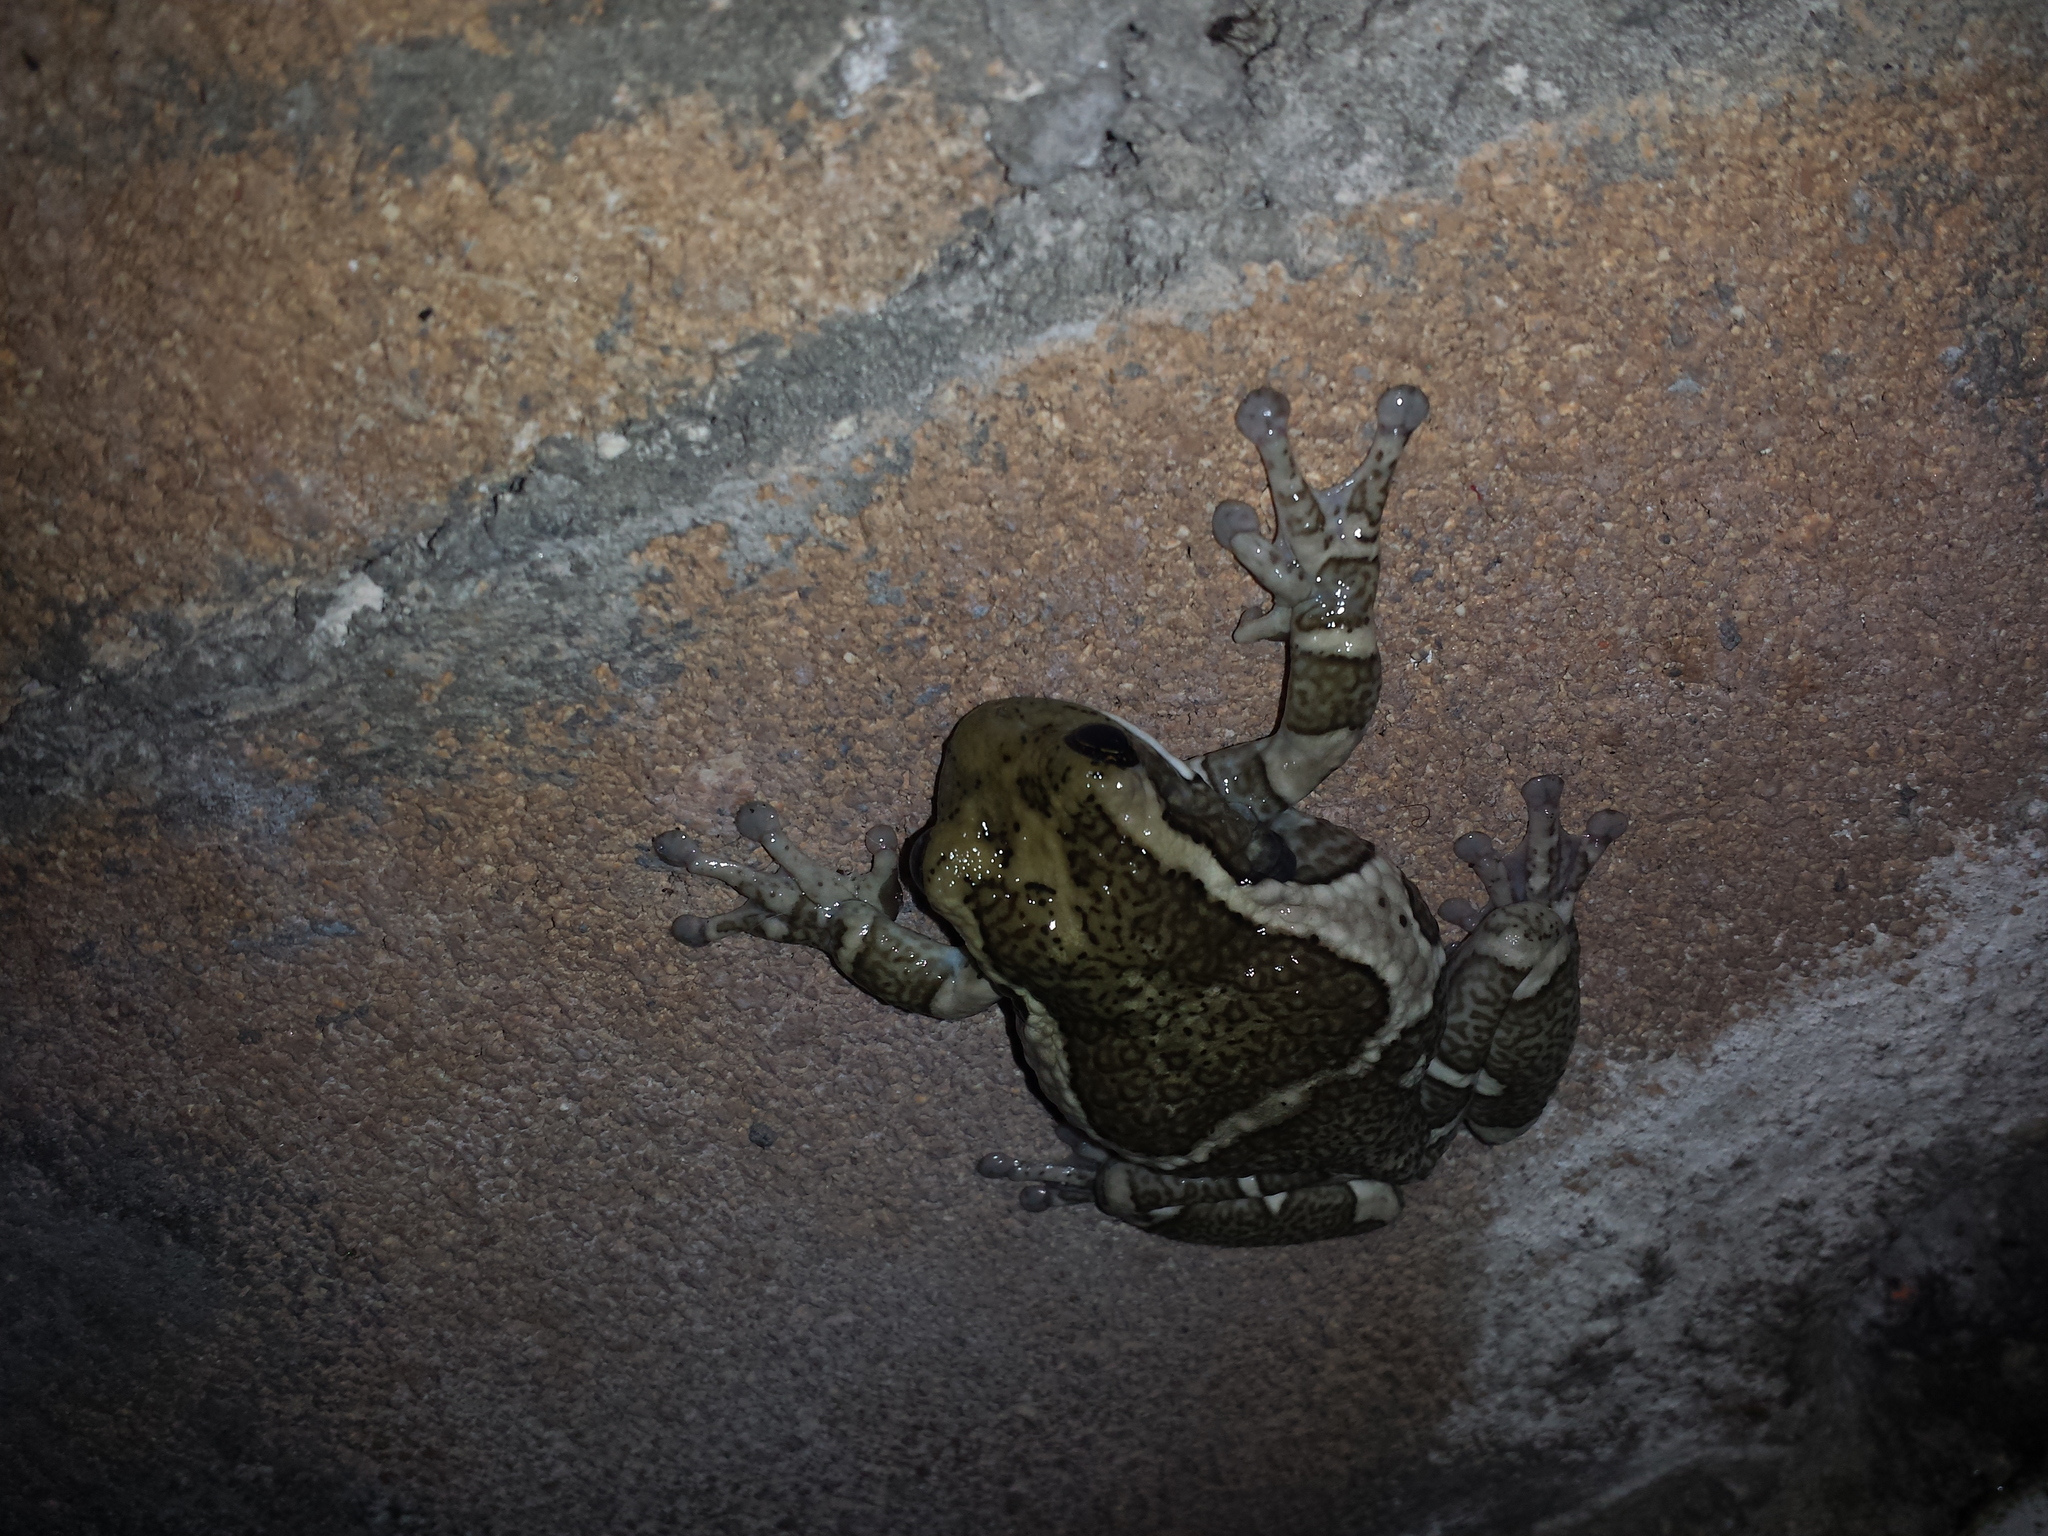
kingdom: Animalia
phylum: Chordata
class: Amphibia
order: Anura
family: Hylidae
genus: Trachycephalus
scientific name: Trachycephalus vermiculatus
